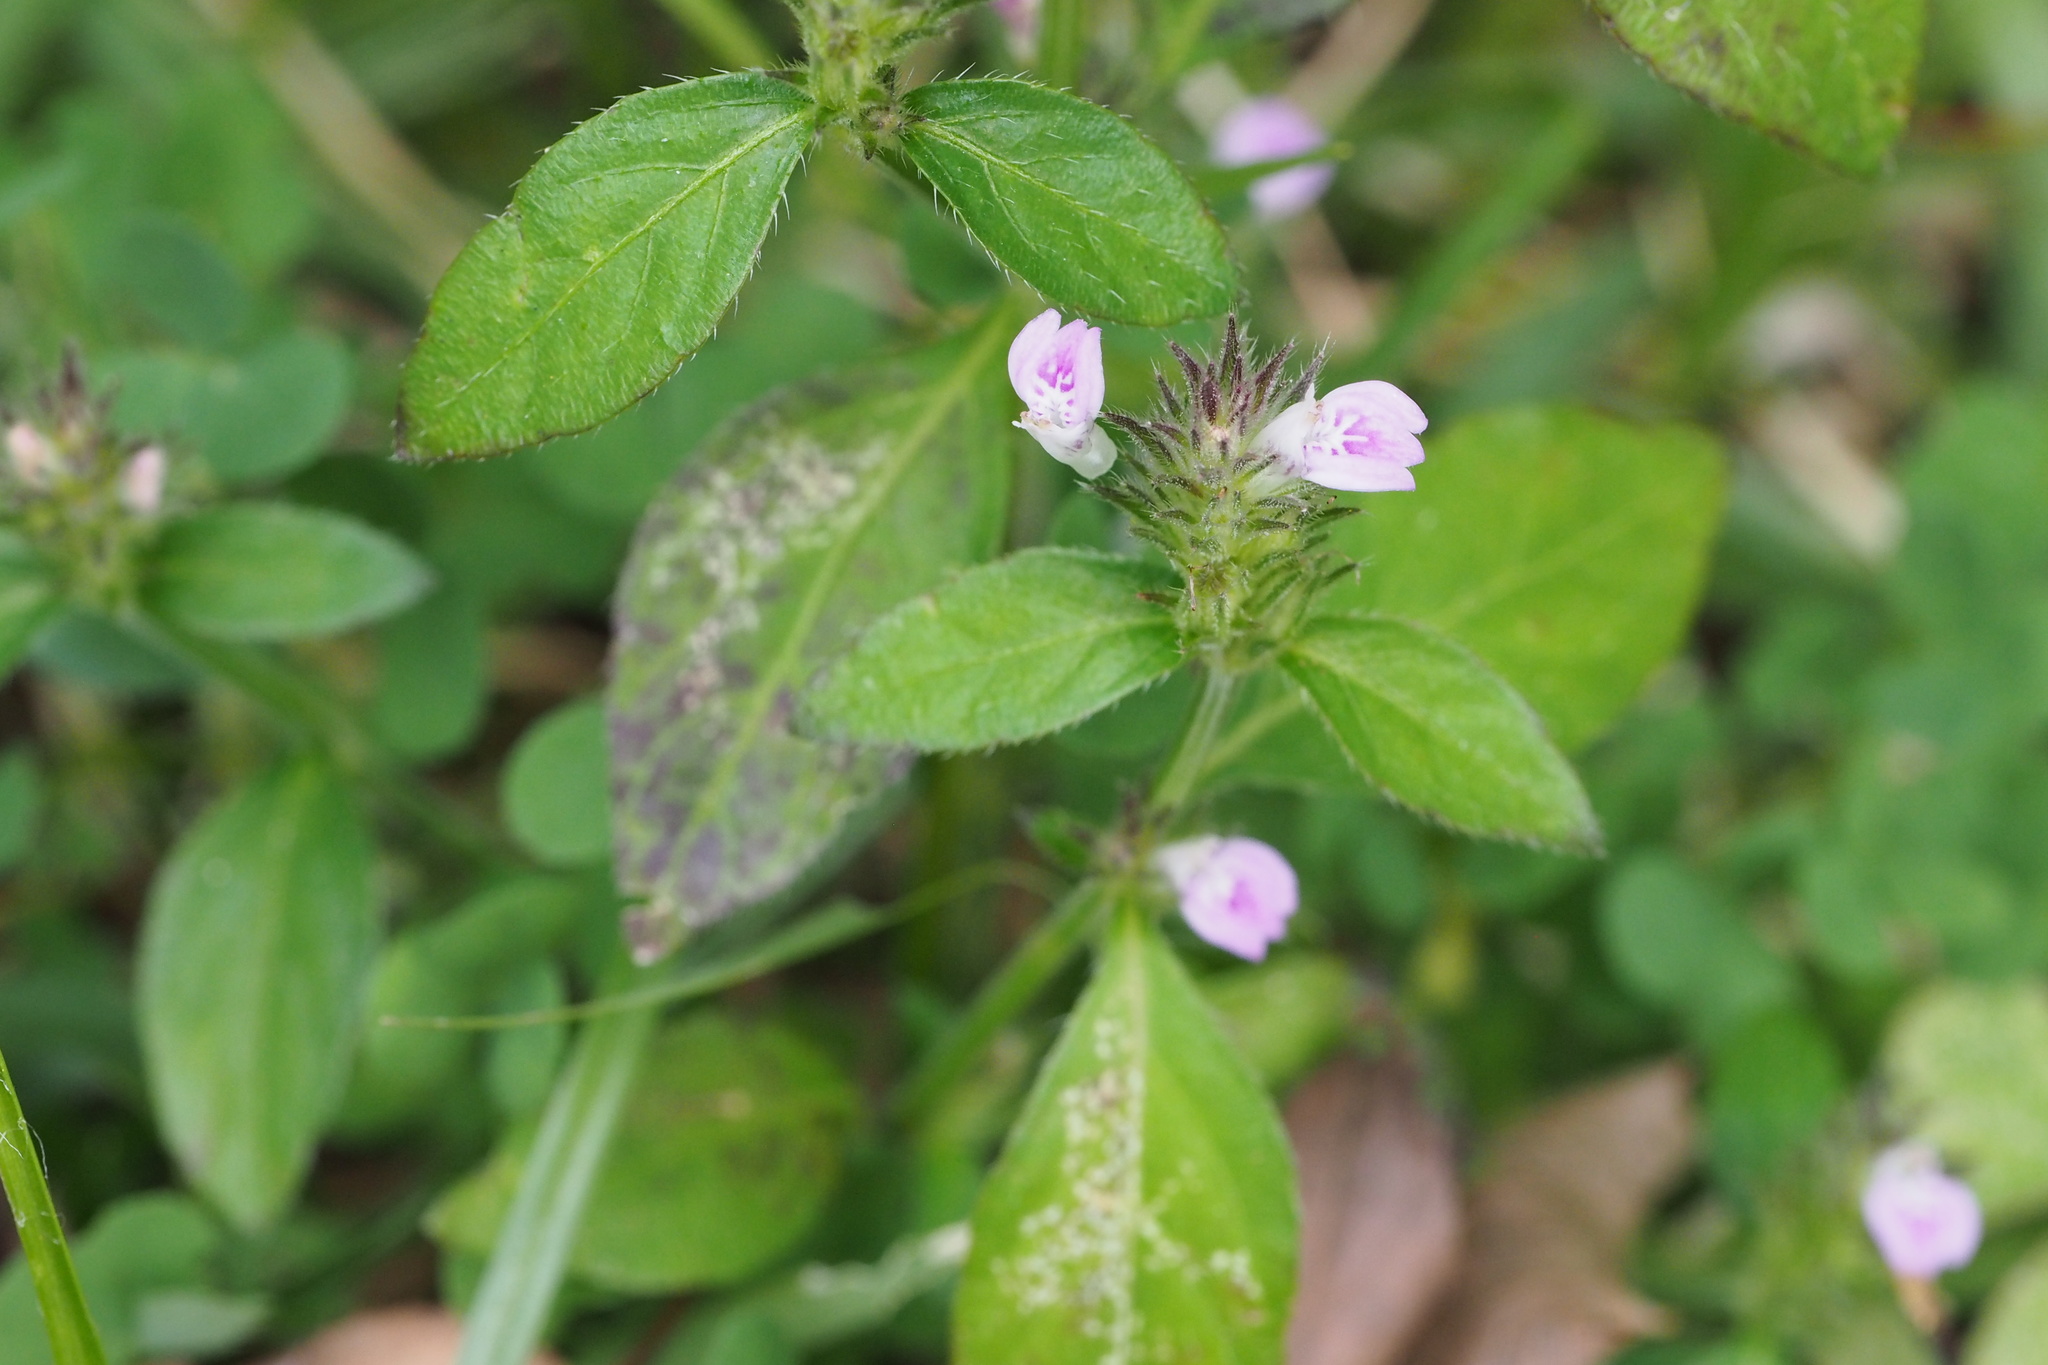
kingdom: Plantae
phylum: Tracheophyta
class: Magnoliopsida
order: Lamiales
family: Acanthaceae
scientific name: Acanthaceae
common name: Acanthaceae
